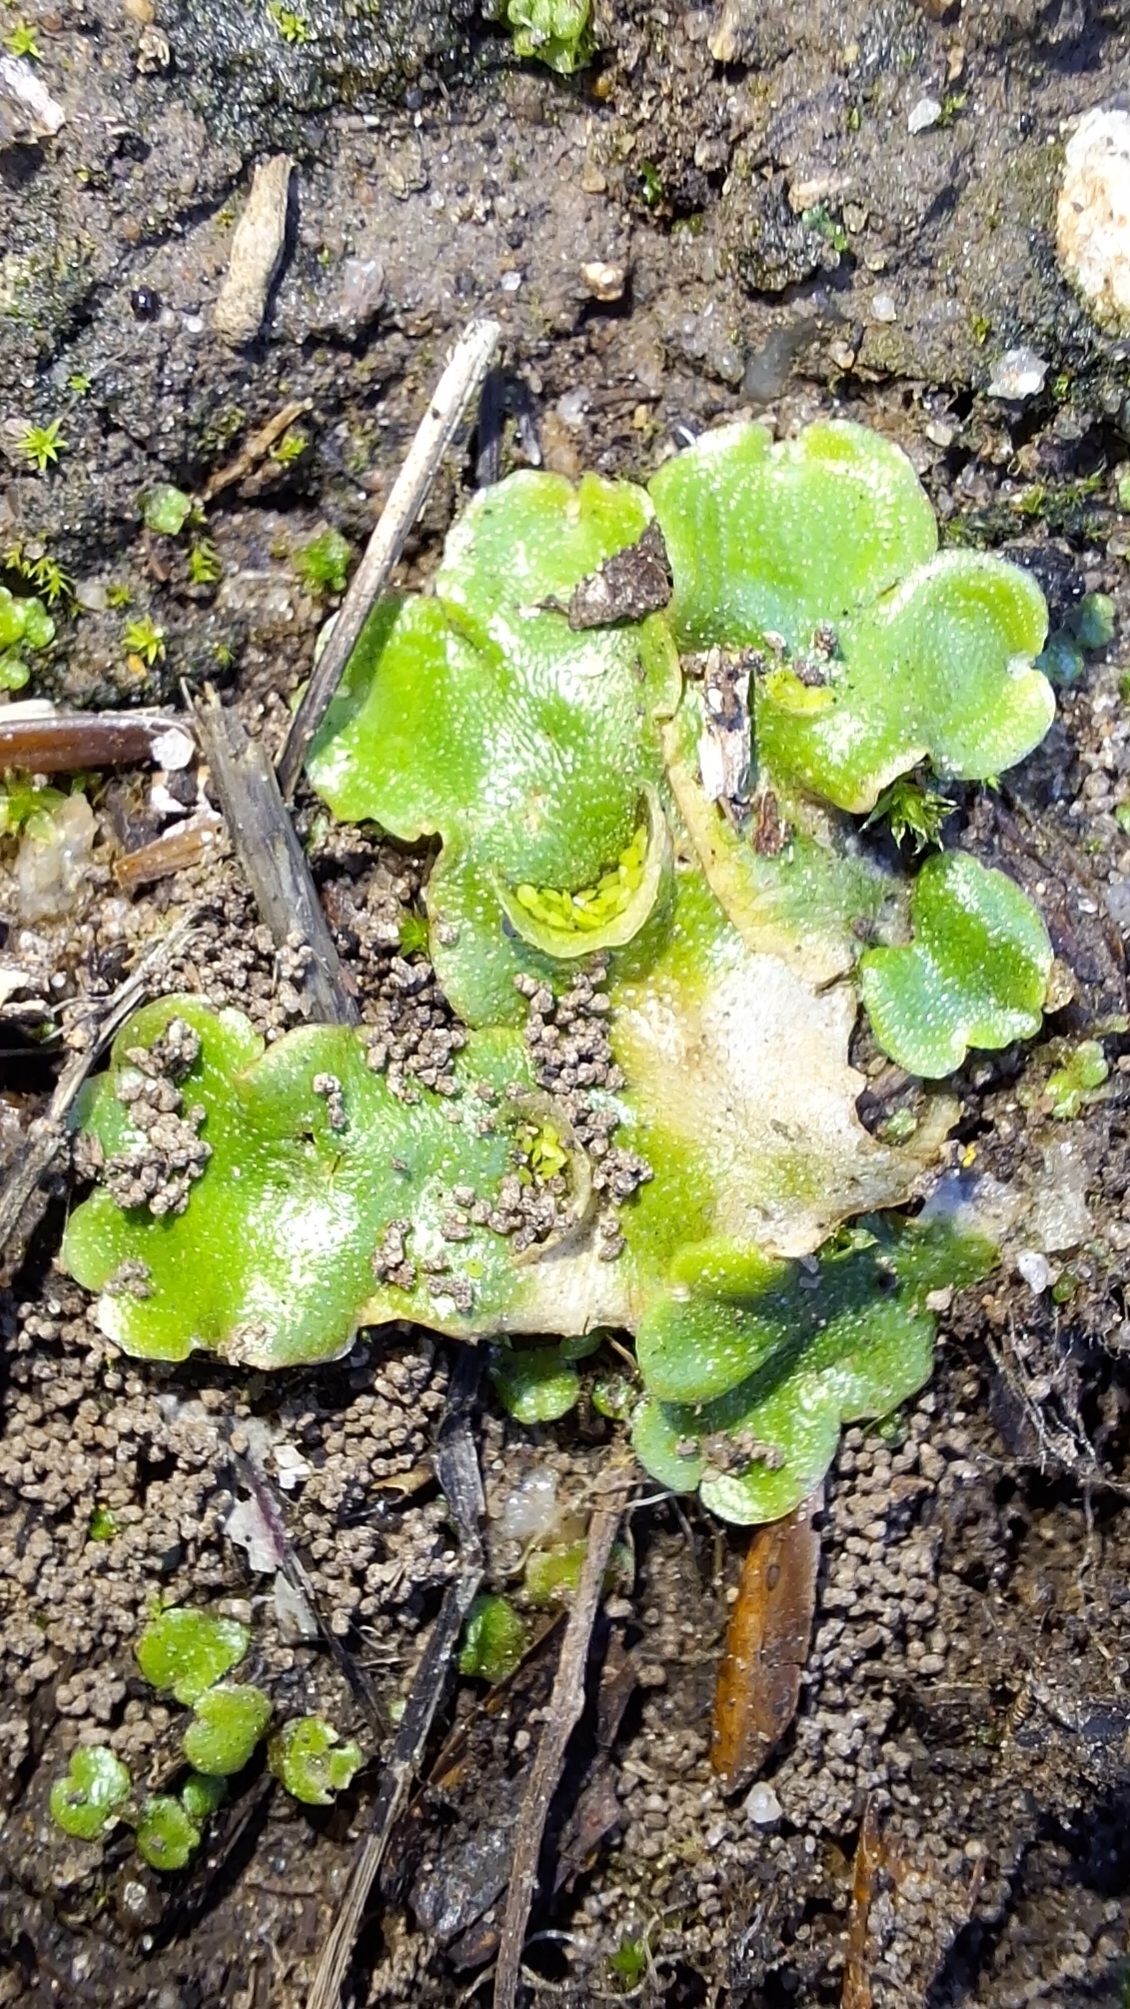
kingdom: Plantae
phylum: Marchantiophyta
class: Marchantiopsida
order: Lunulariales
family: Lunulariaceae
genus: Lunularia
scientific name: Lunularia cruciata
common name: Crescent-cup liverwort
